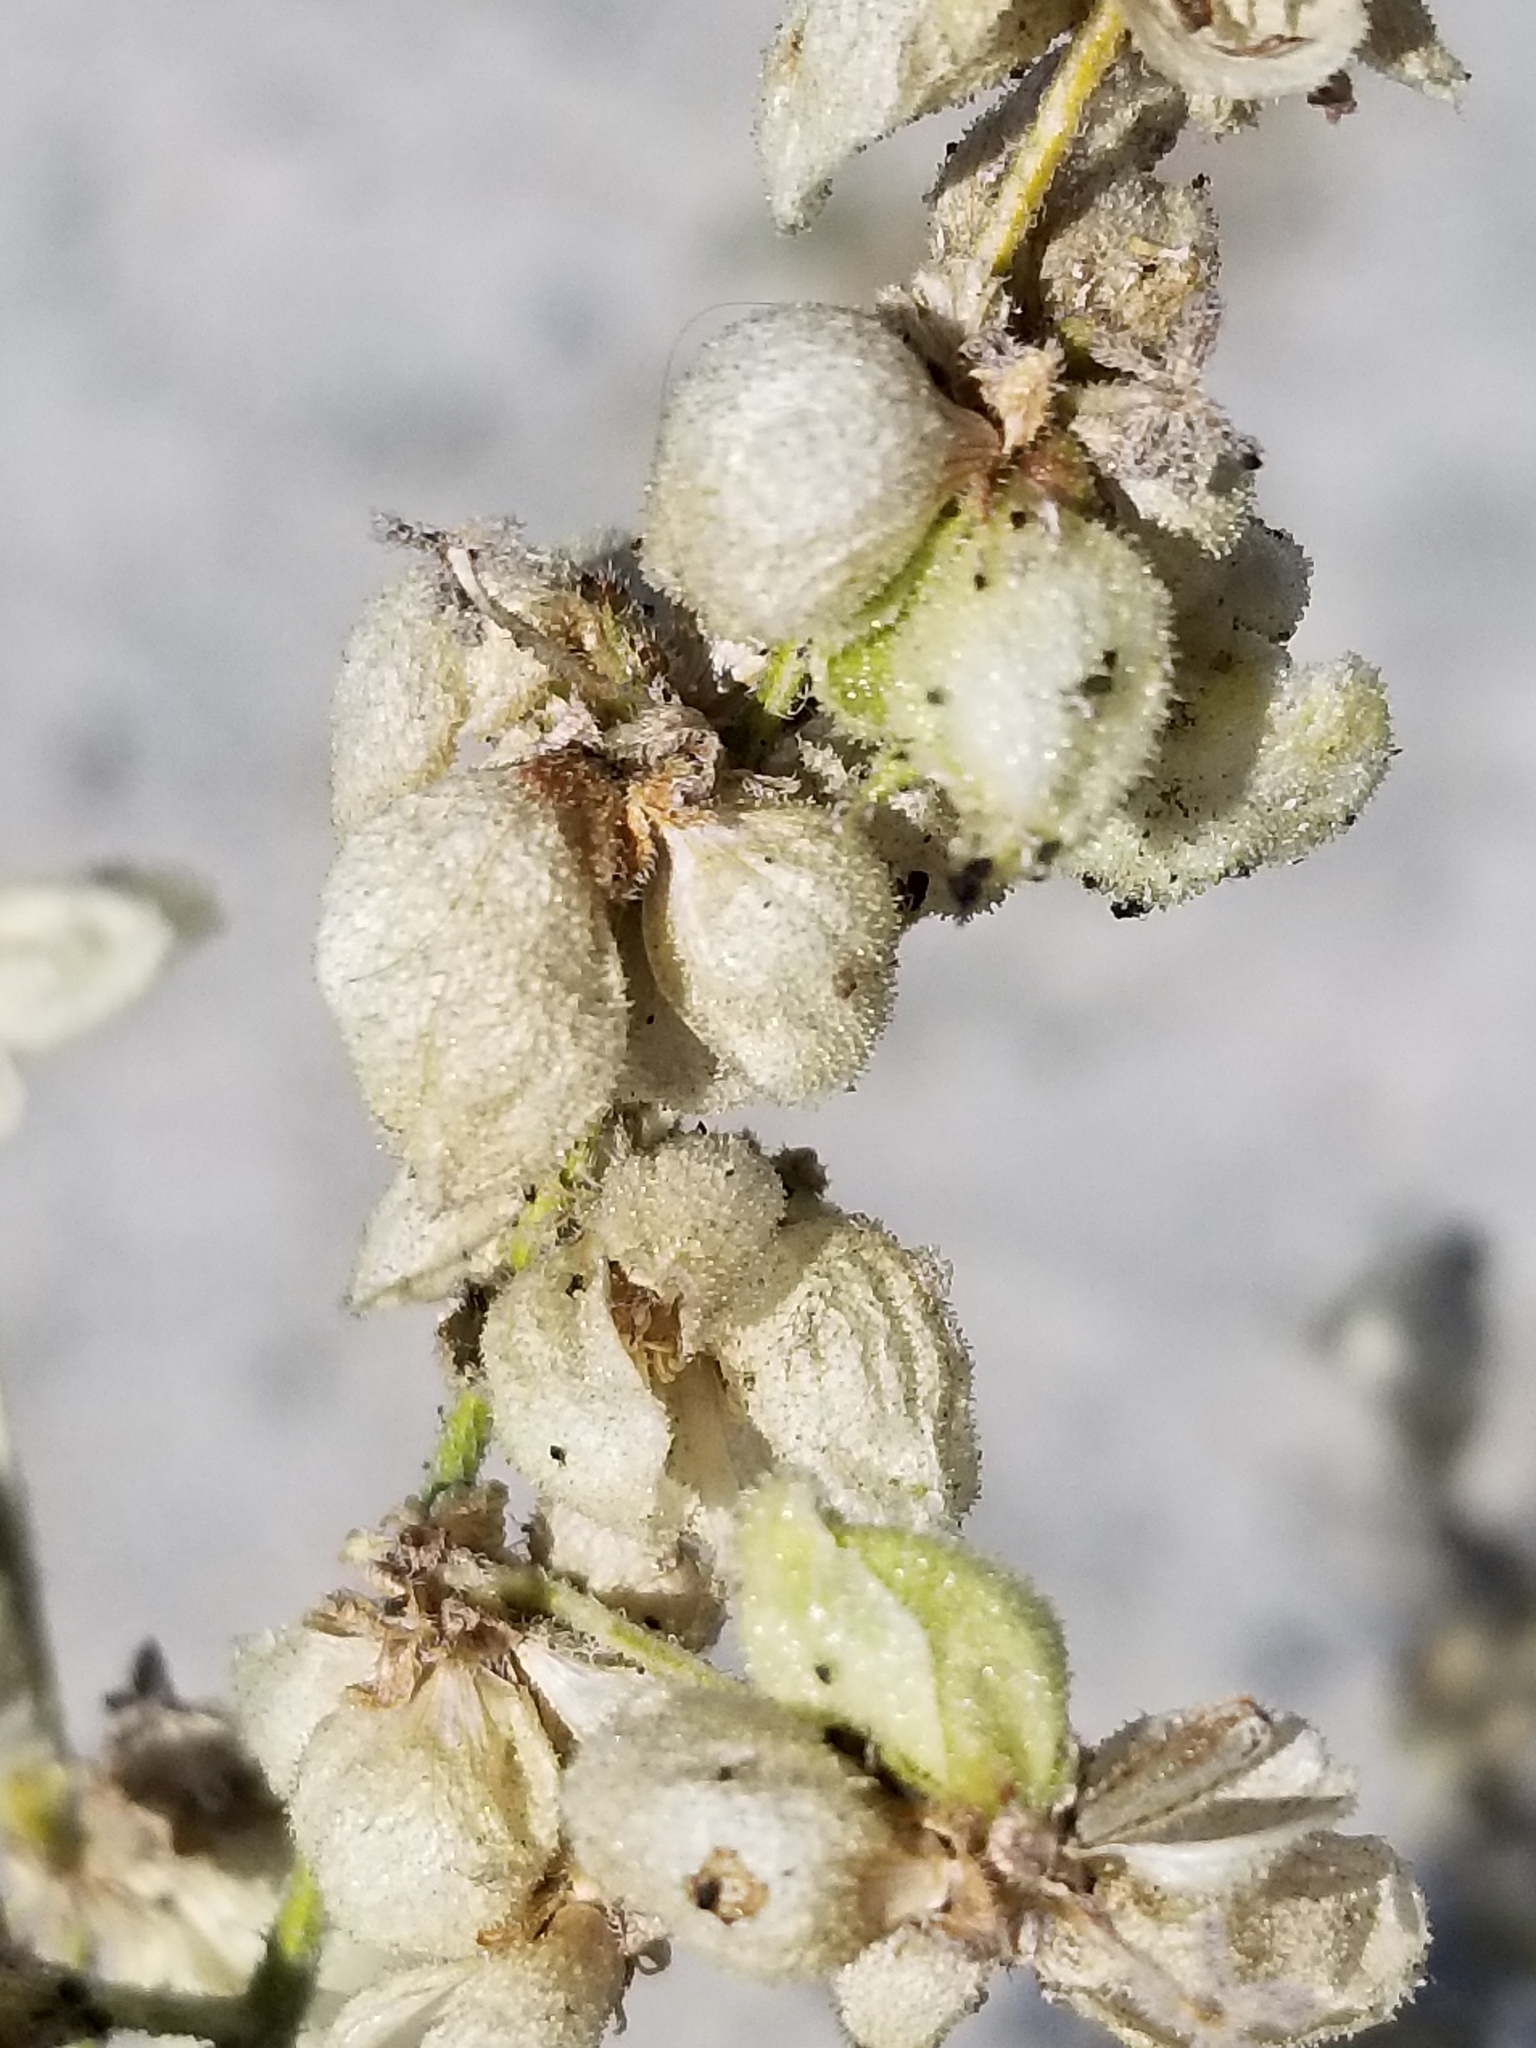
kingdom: Plantae
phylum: Tracheophyta
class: Magnoliopsida
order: Asterales
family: Asteraceae
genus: Dicoria
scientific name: Dicoria canescens
